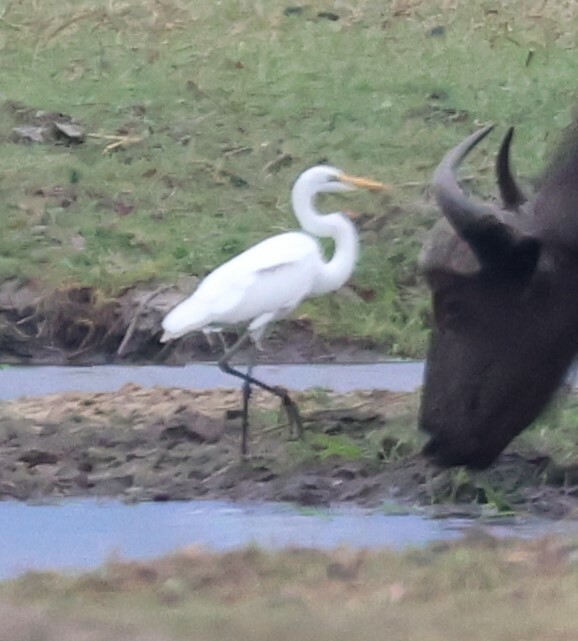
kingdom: Animalia
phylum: Chordata
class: Aves
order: Pelecaniformes
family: Ardeidae
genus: Ardea
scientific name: Ardea alba
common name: Great egret
